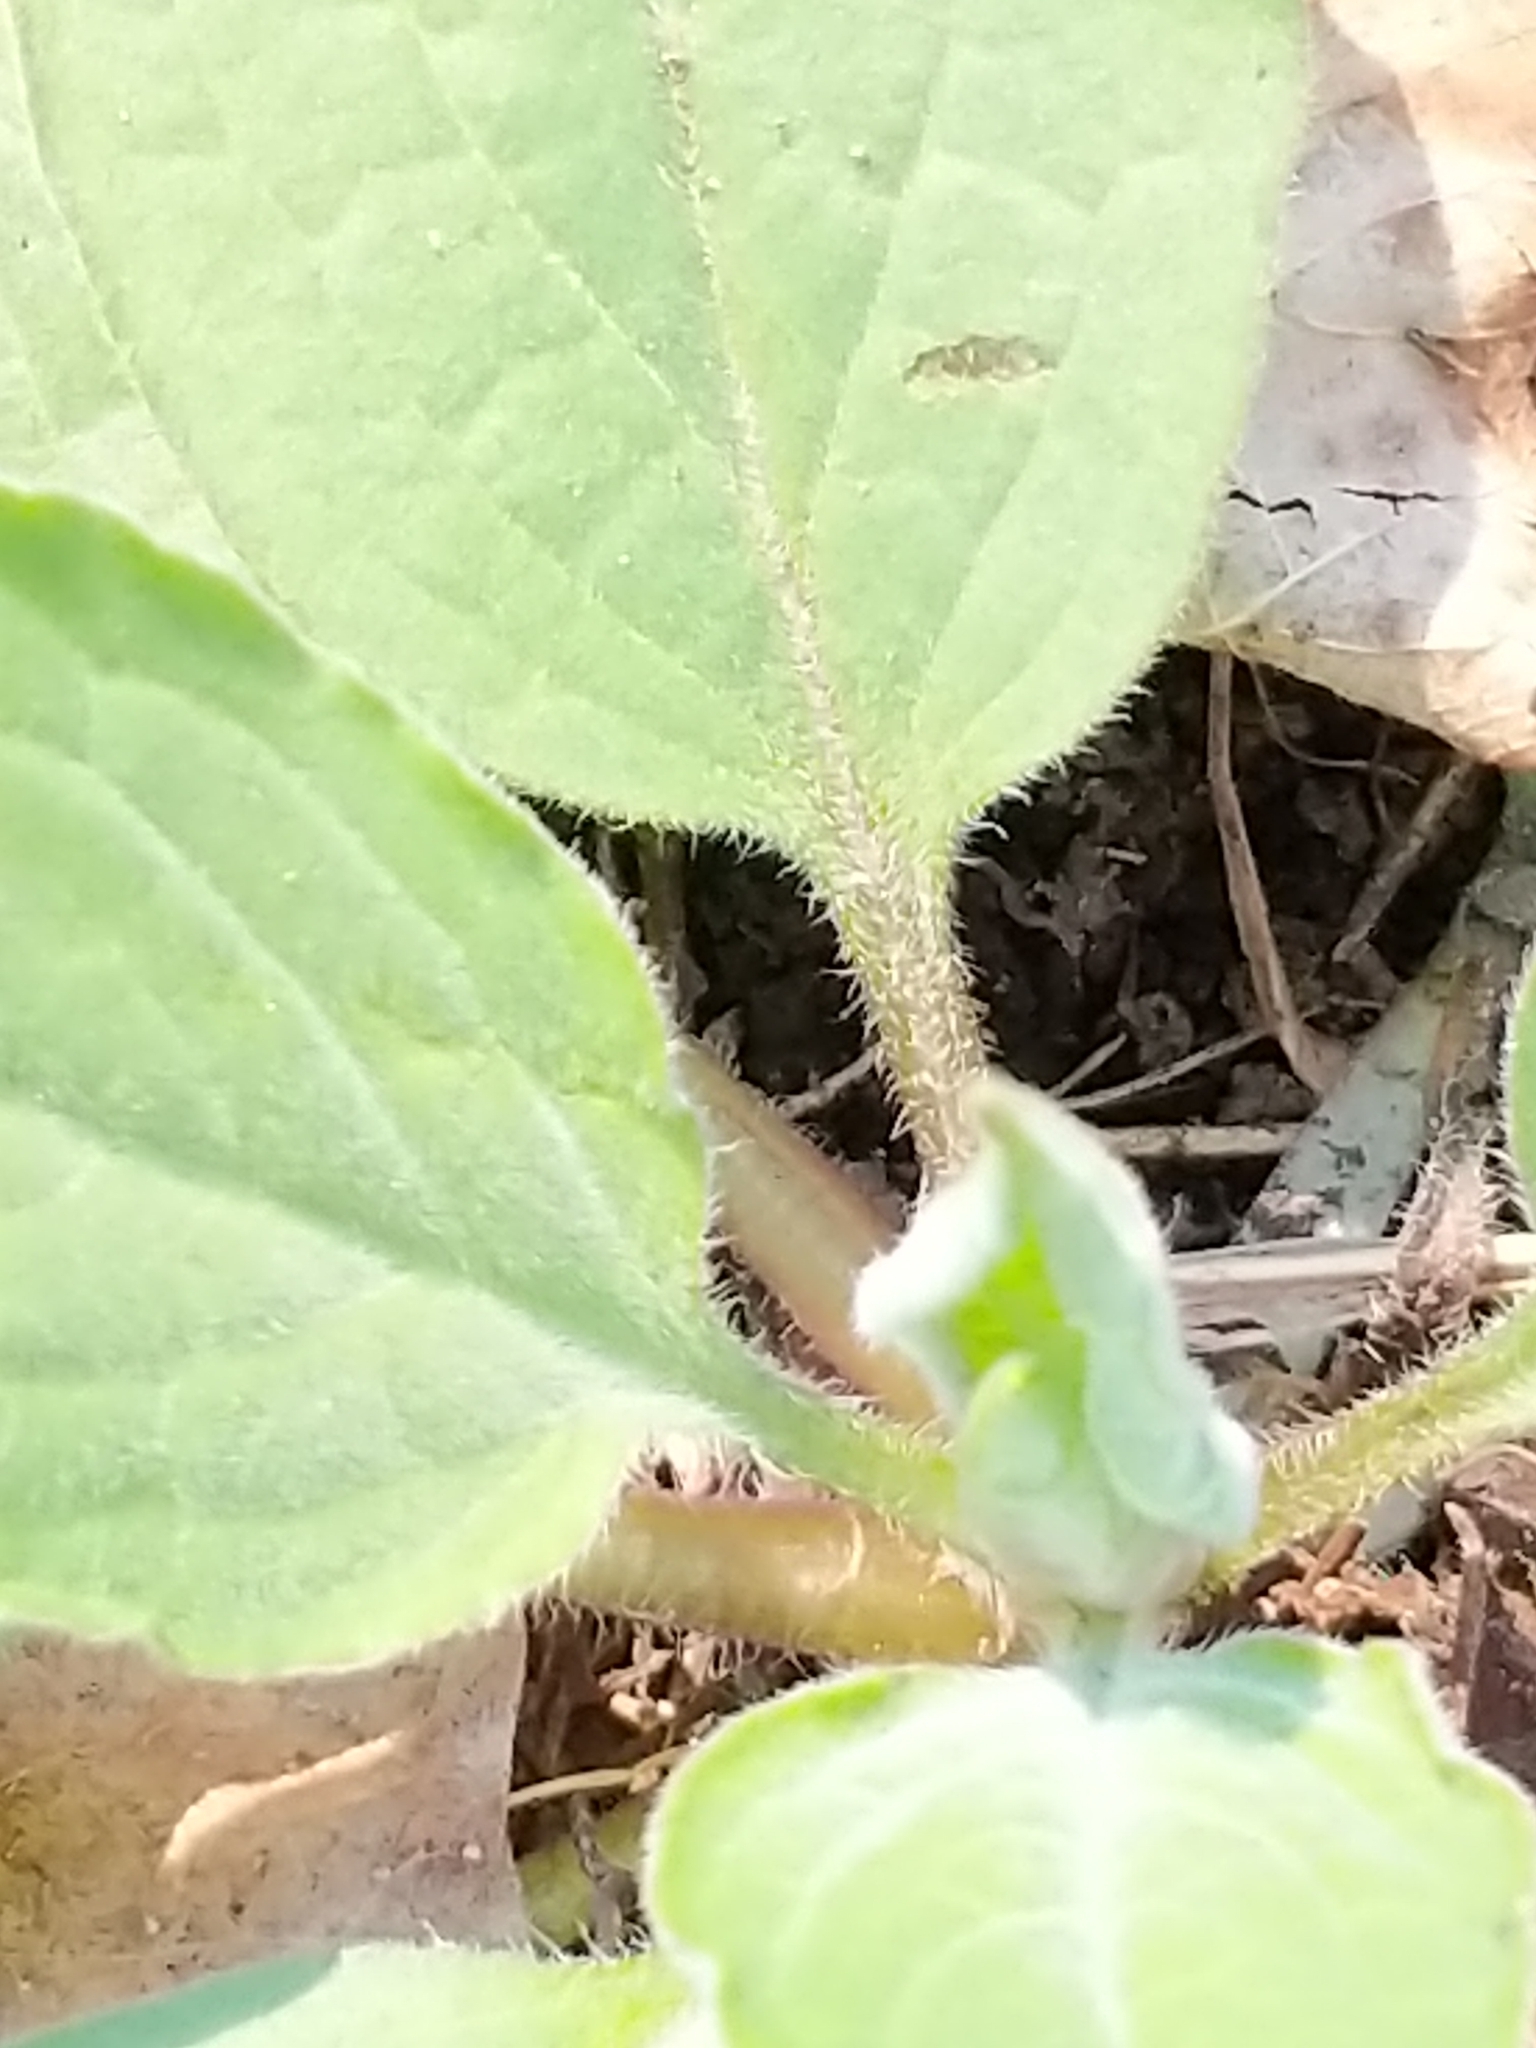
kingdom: Plantae
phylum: Tracheophyta
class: Magnoliopsida
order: Boraginales
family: Boraginaceae
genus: Hackelia
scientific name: Hackelia virginiana
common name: Beggar's-lice
